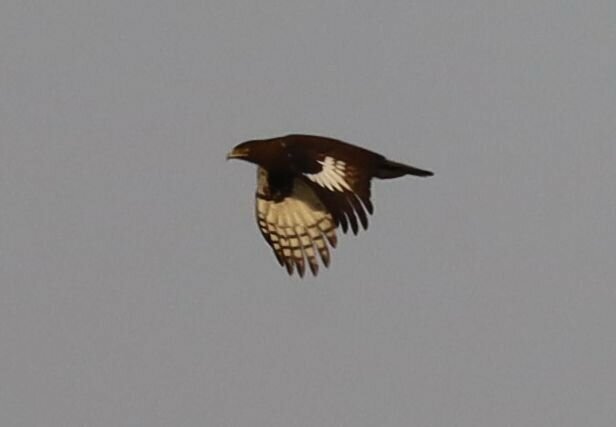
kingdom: Animalia
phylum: Chordata
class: Aves
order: Accipitriformes
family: Accipitridae
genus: Lophaetus
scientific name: Lophaetus occipitalis
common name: Long-crested eagle
